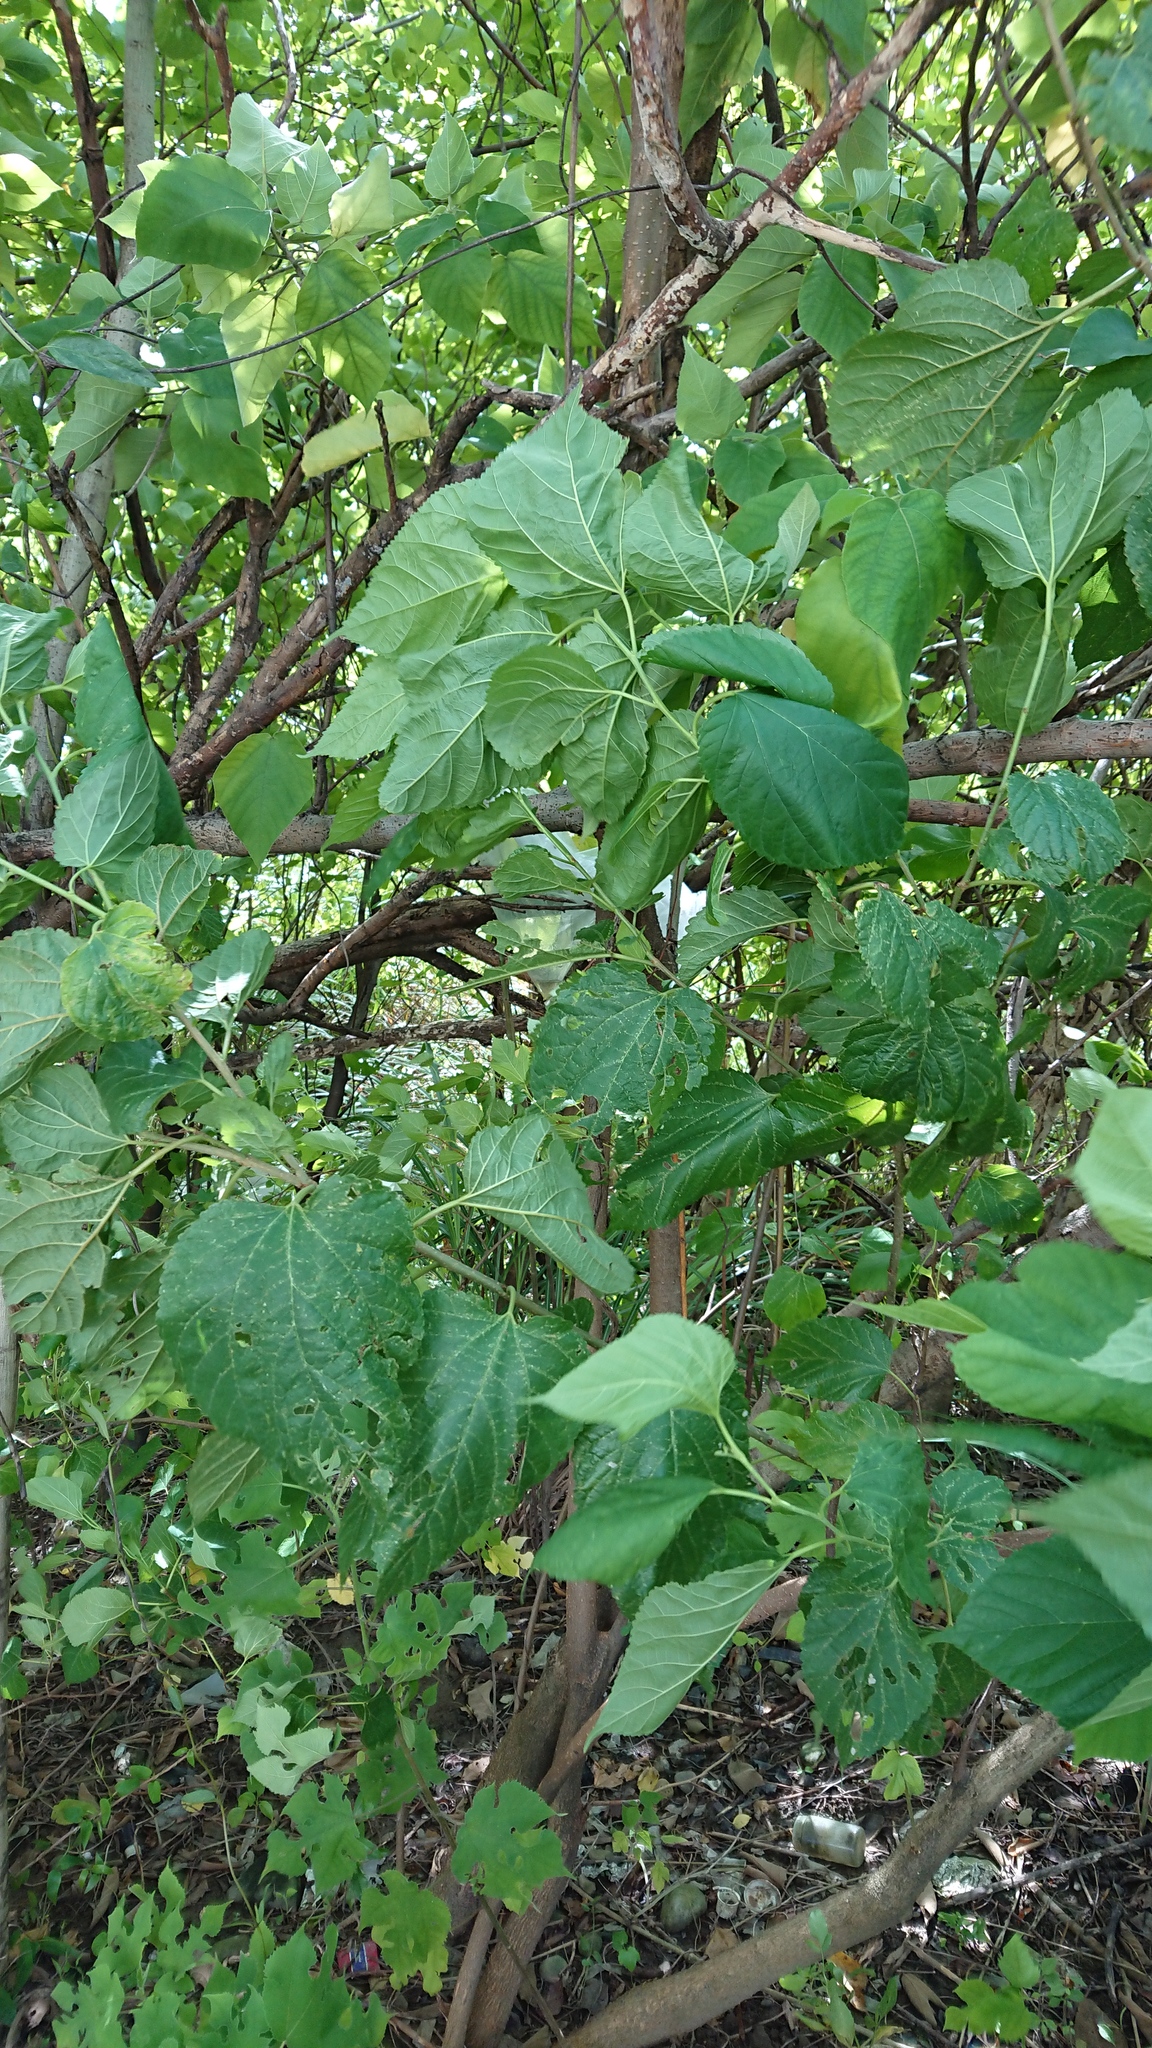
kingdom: Plantae
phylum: Tracheophyta
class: Magnoliopsida
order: Rosales
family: Moraceae
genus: Morus
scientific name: Morus indica
